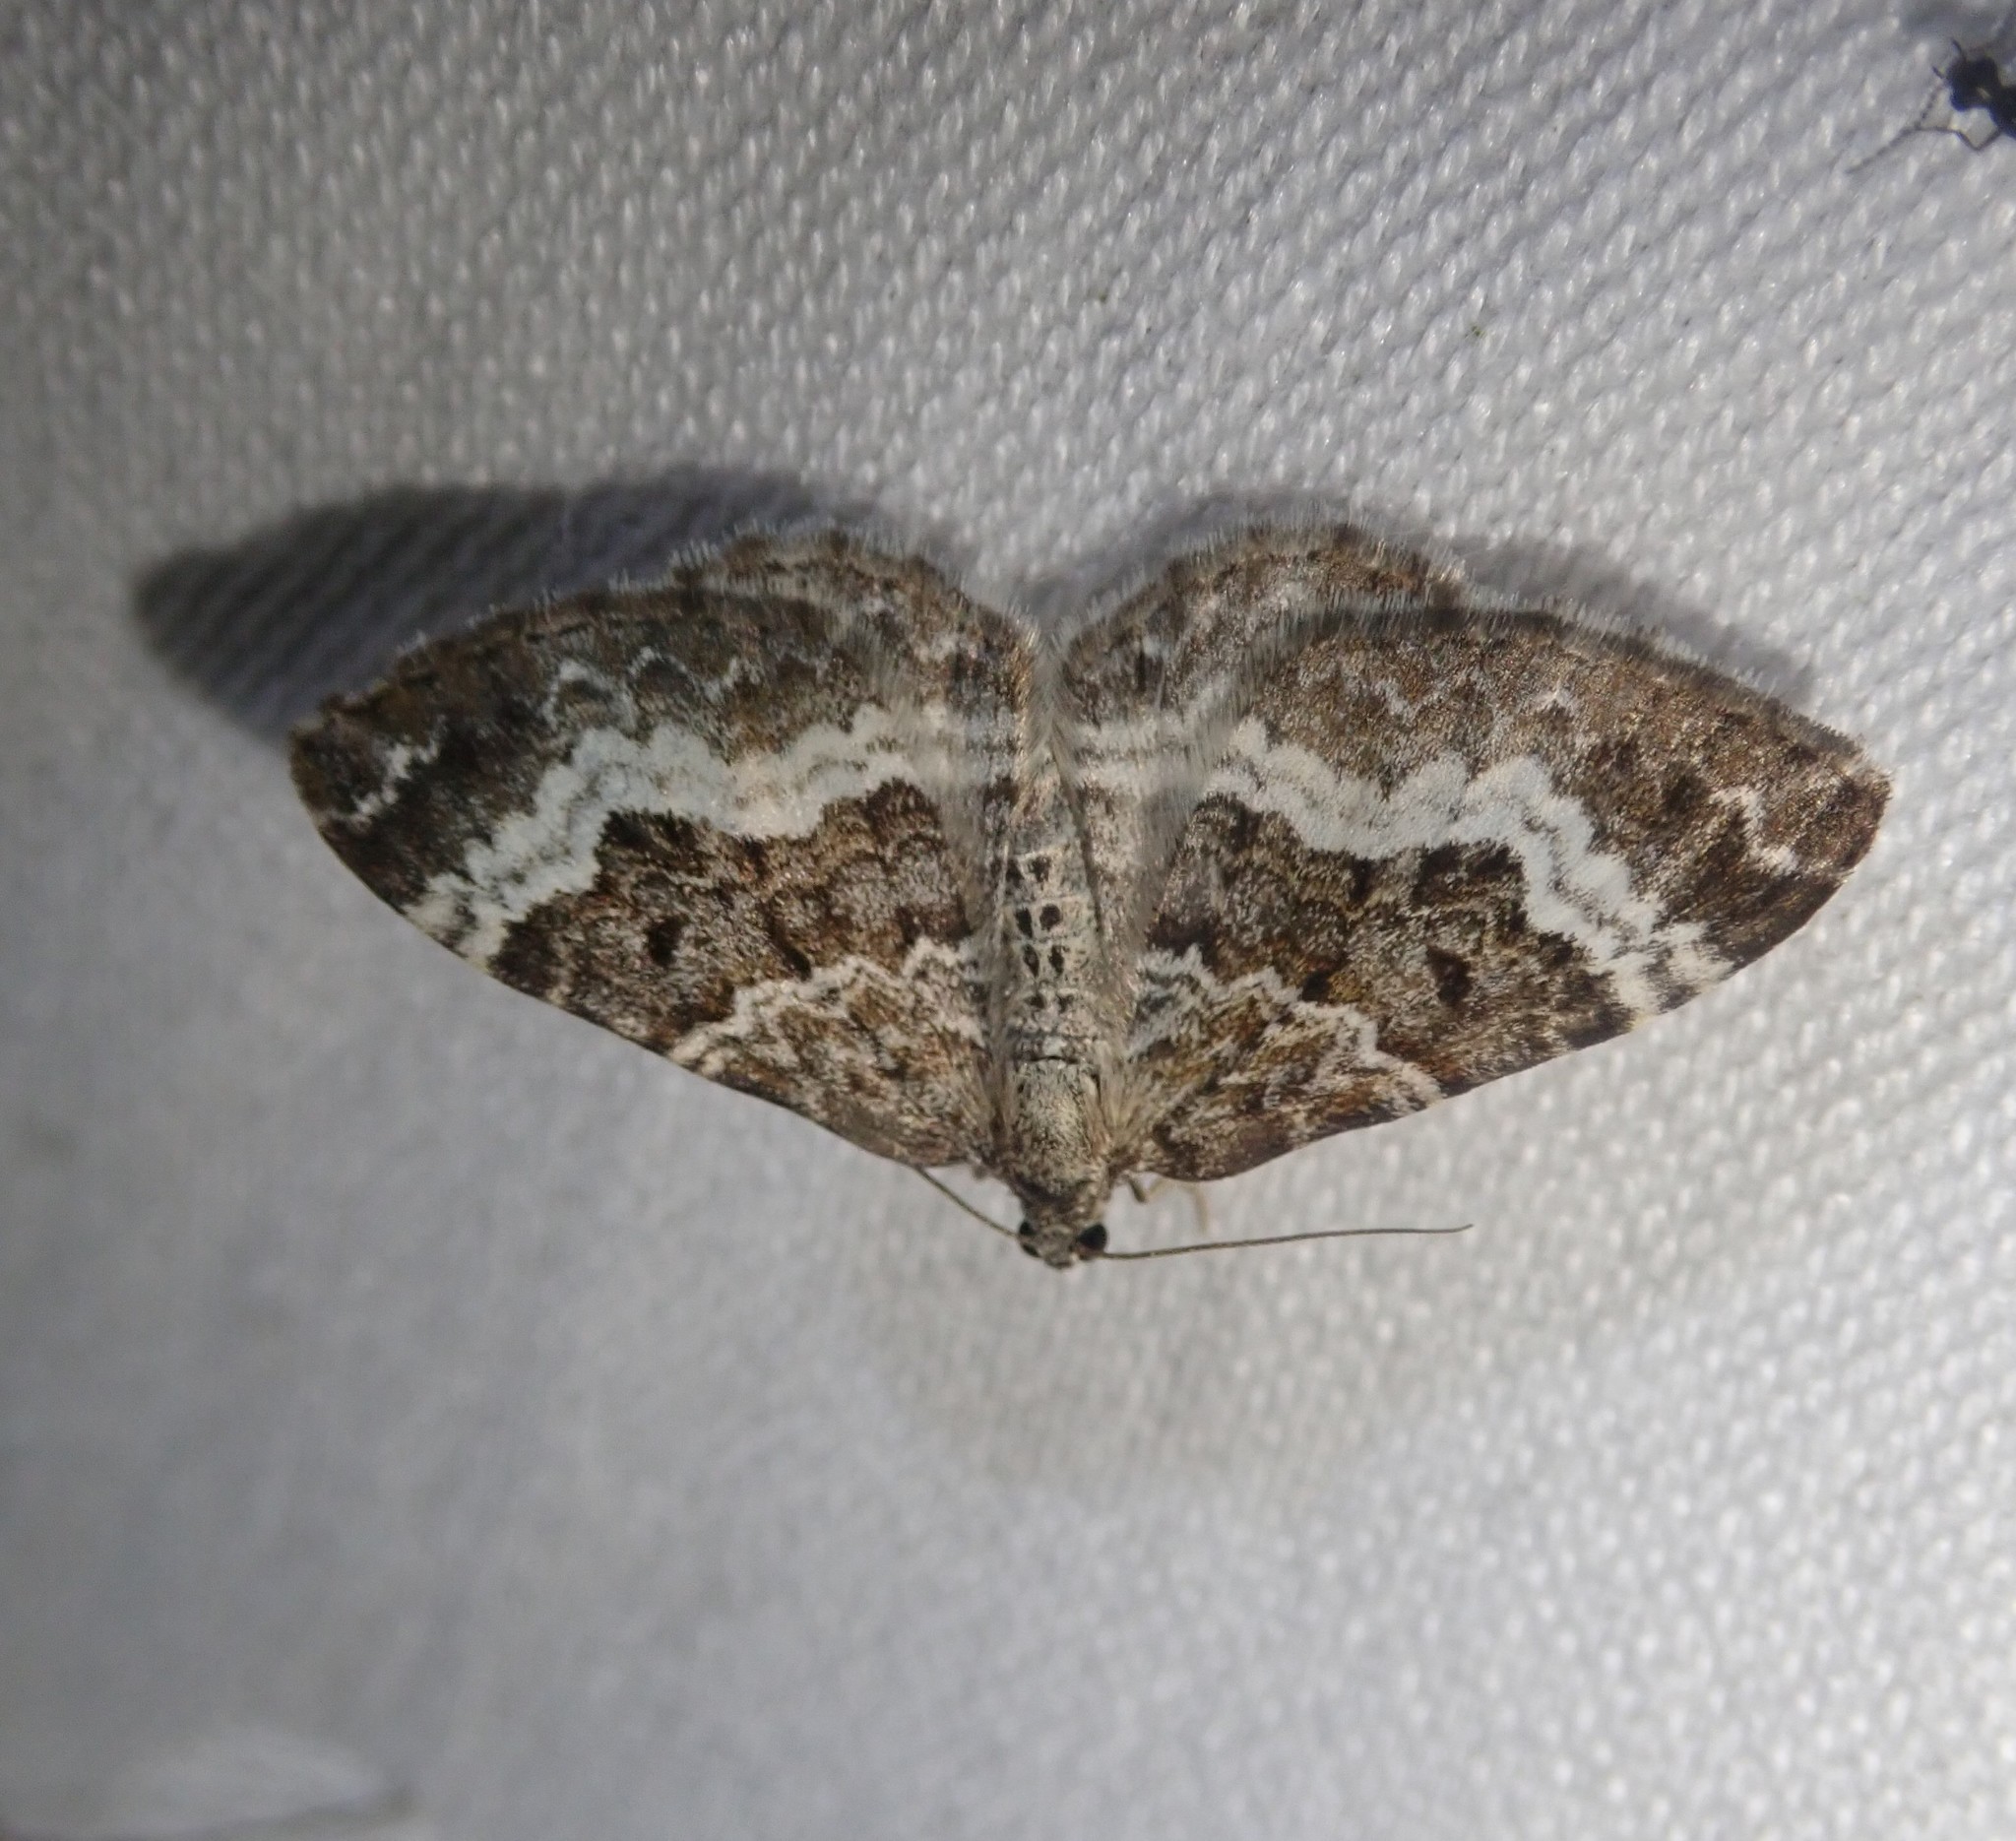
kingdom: Animalia
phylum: Arthropoda
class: Insecta
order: Lepidoptera
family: Geometridae
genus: Epirrhoe
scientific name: Epirrhoe alternata
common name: Common carpet
